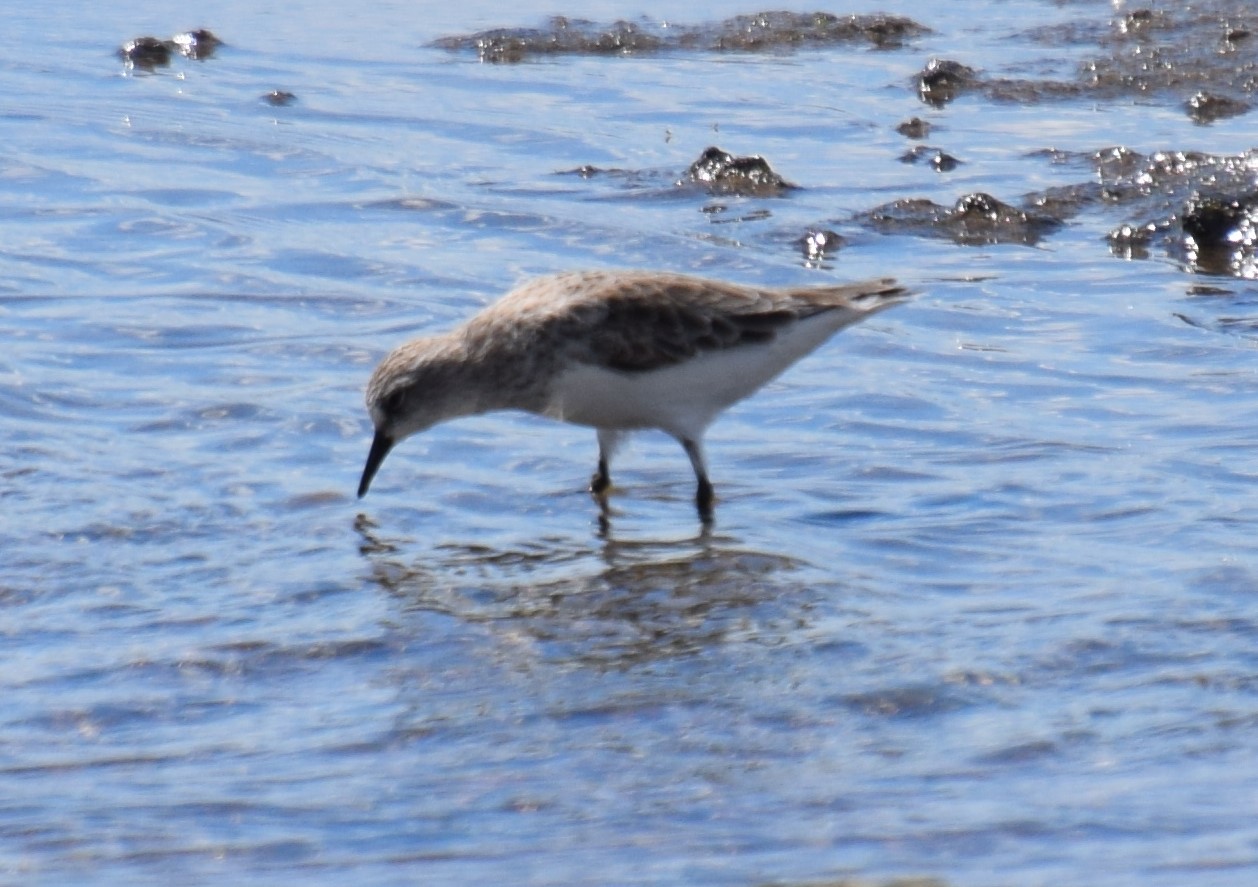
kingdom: Animalia
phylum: Chordata
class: Aves
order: Charadriiformes
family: Scolopacidae
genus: Calidris
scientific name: Calidris ruficollis
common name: Red-necked stint
